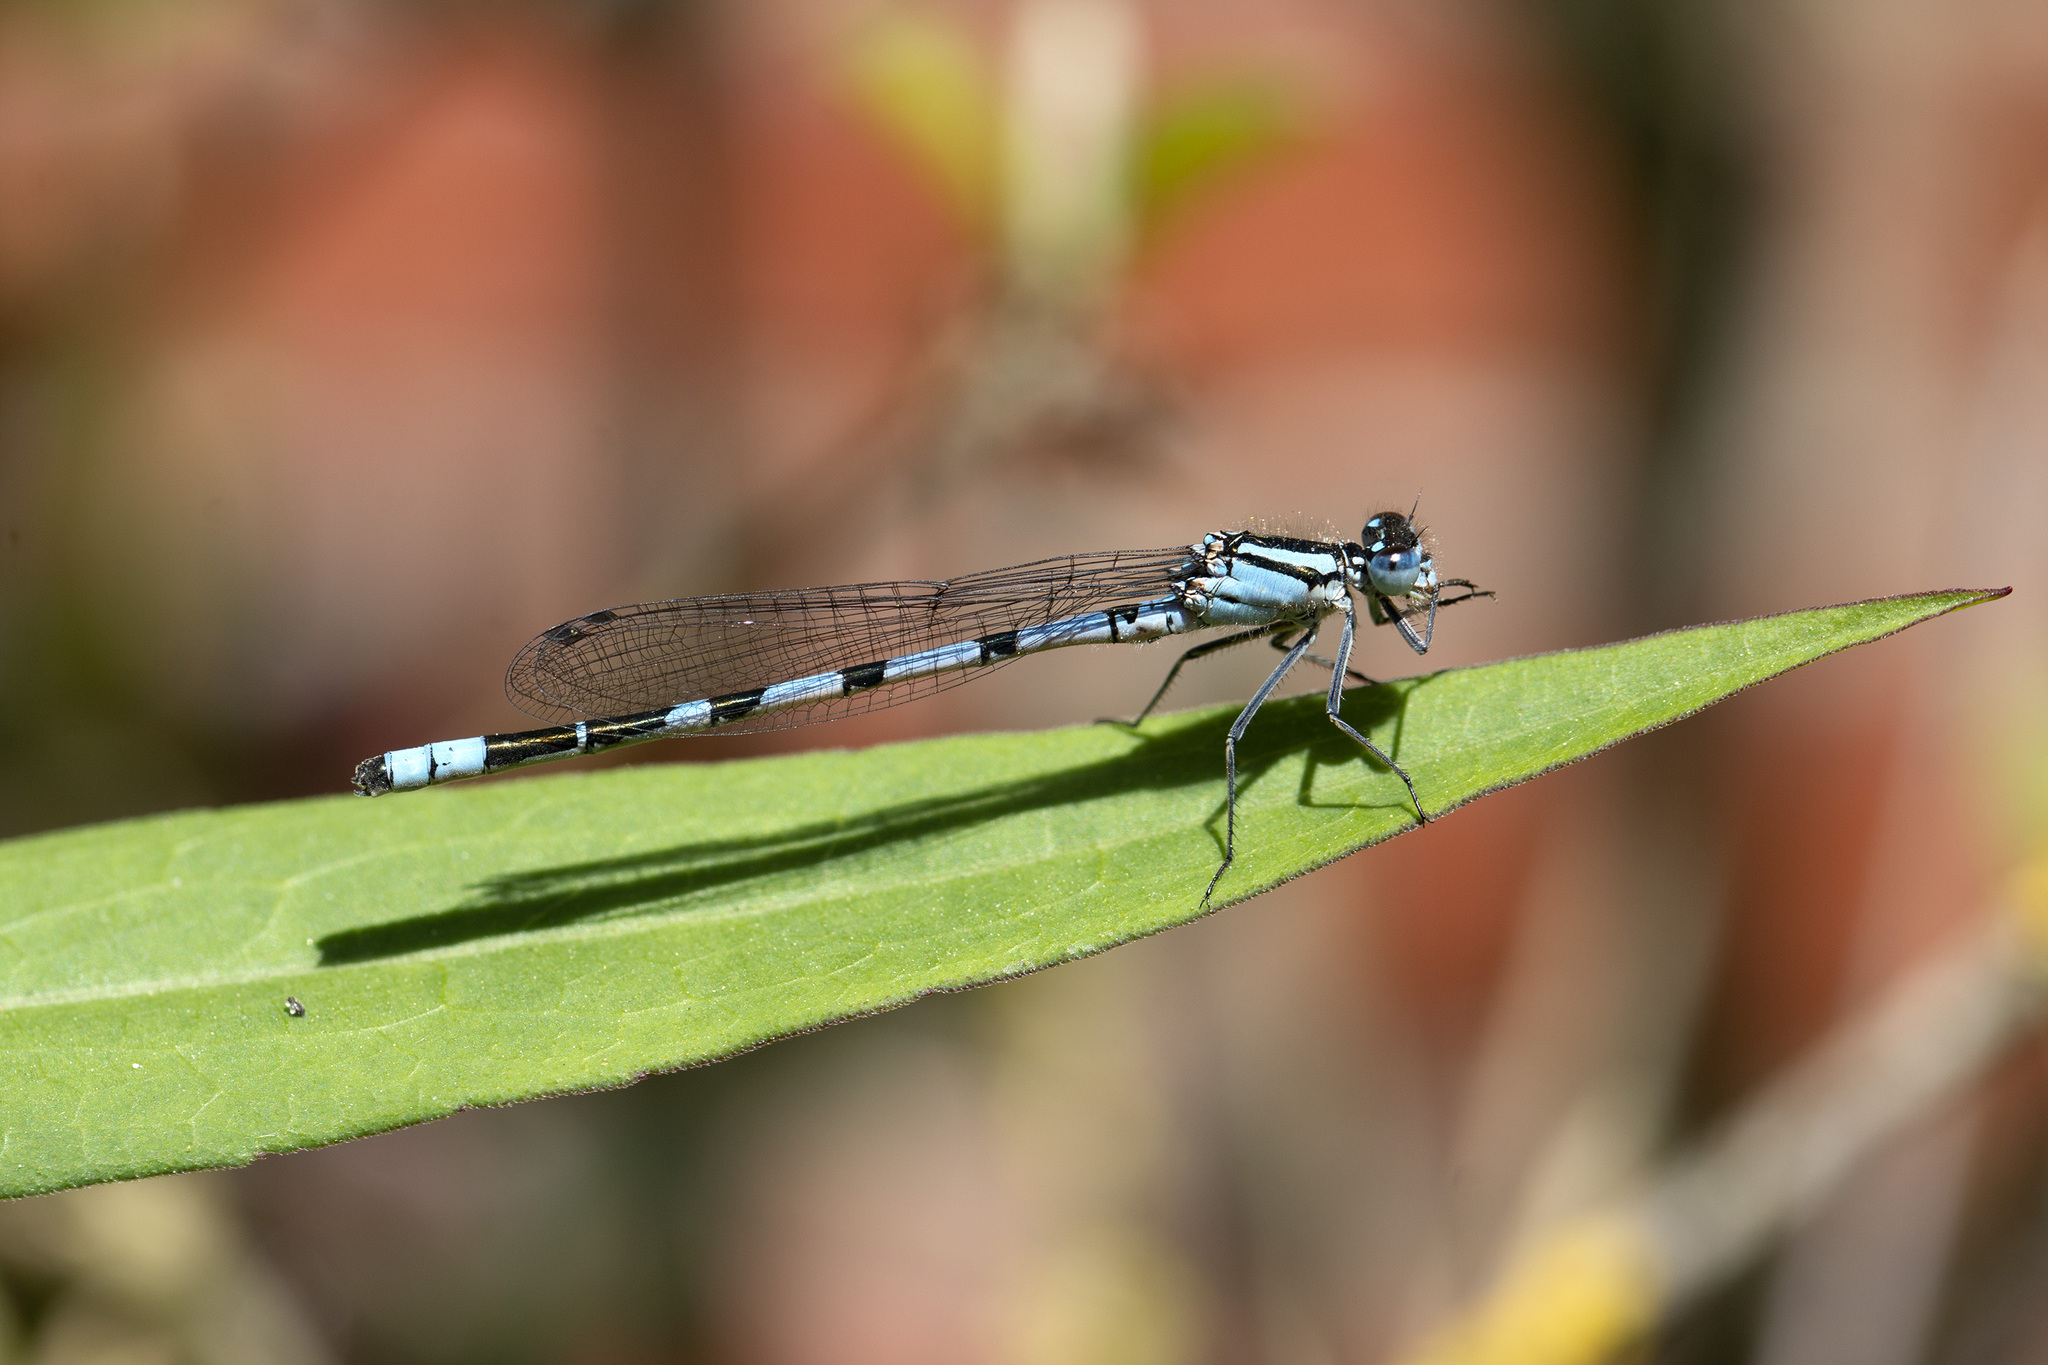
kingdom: Animalia
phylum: Arthropoda
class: Insecta
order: Odonata
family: Coenagrionidae
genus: Enallagma
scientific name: Enallagma cyathigerum
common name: Common blue damselfly
